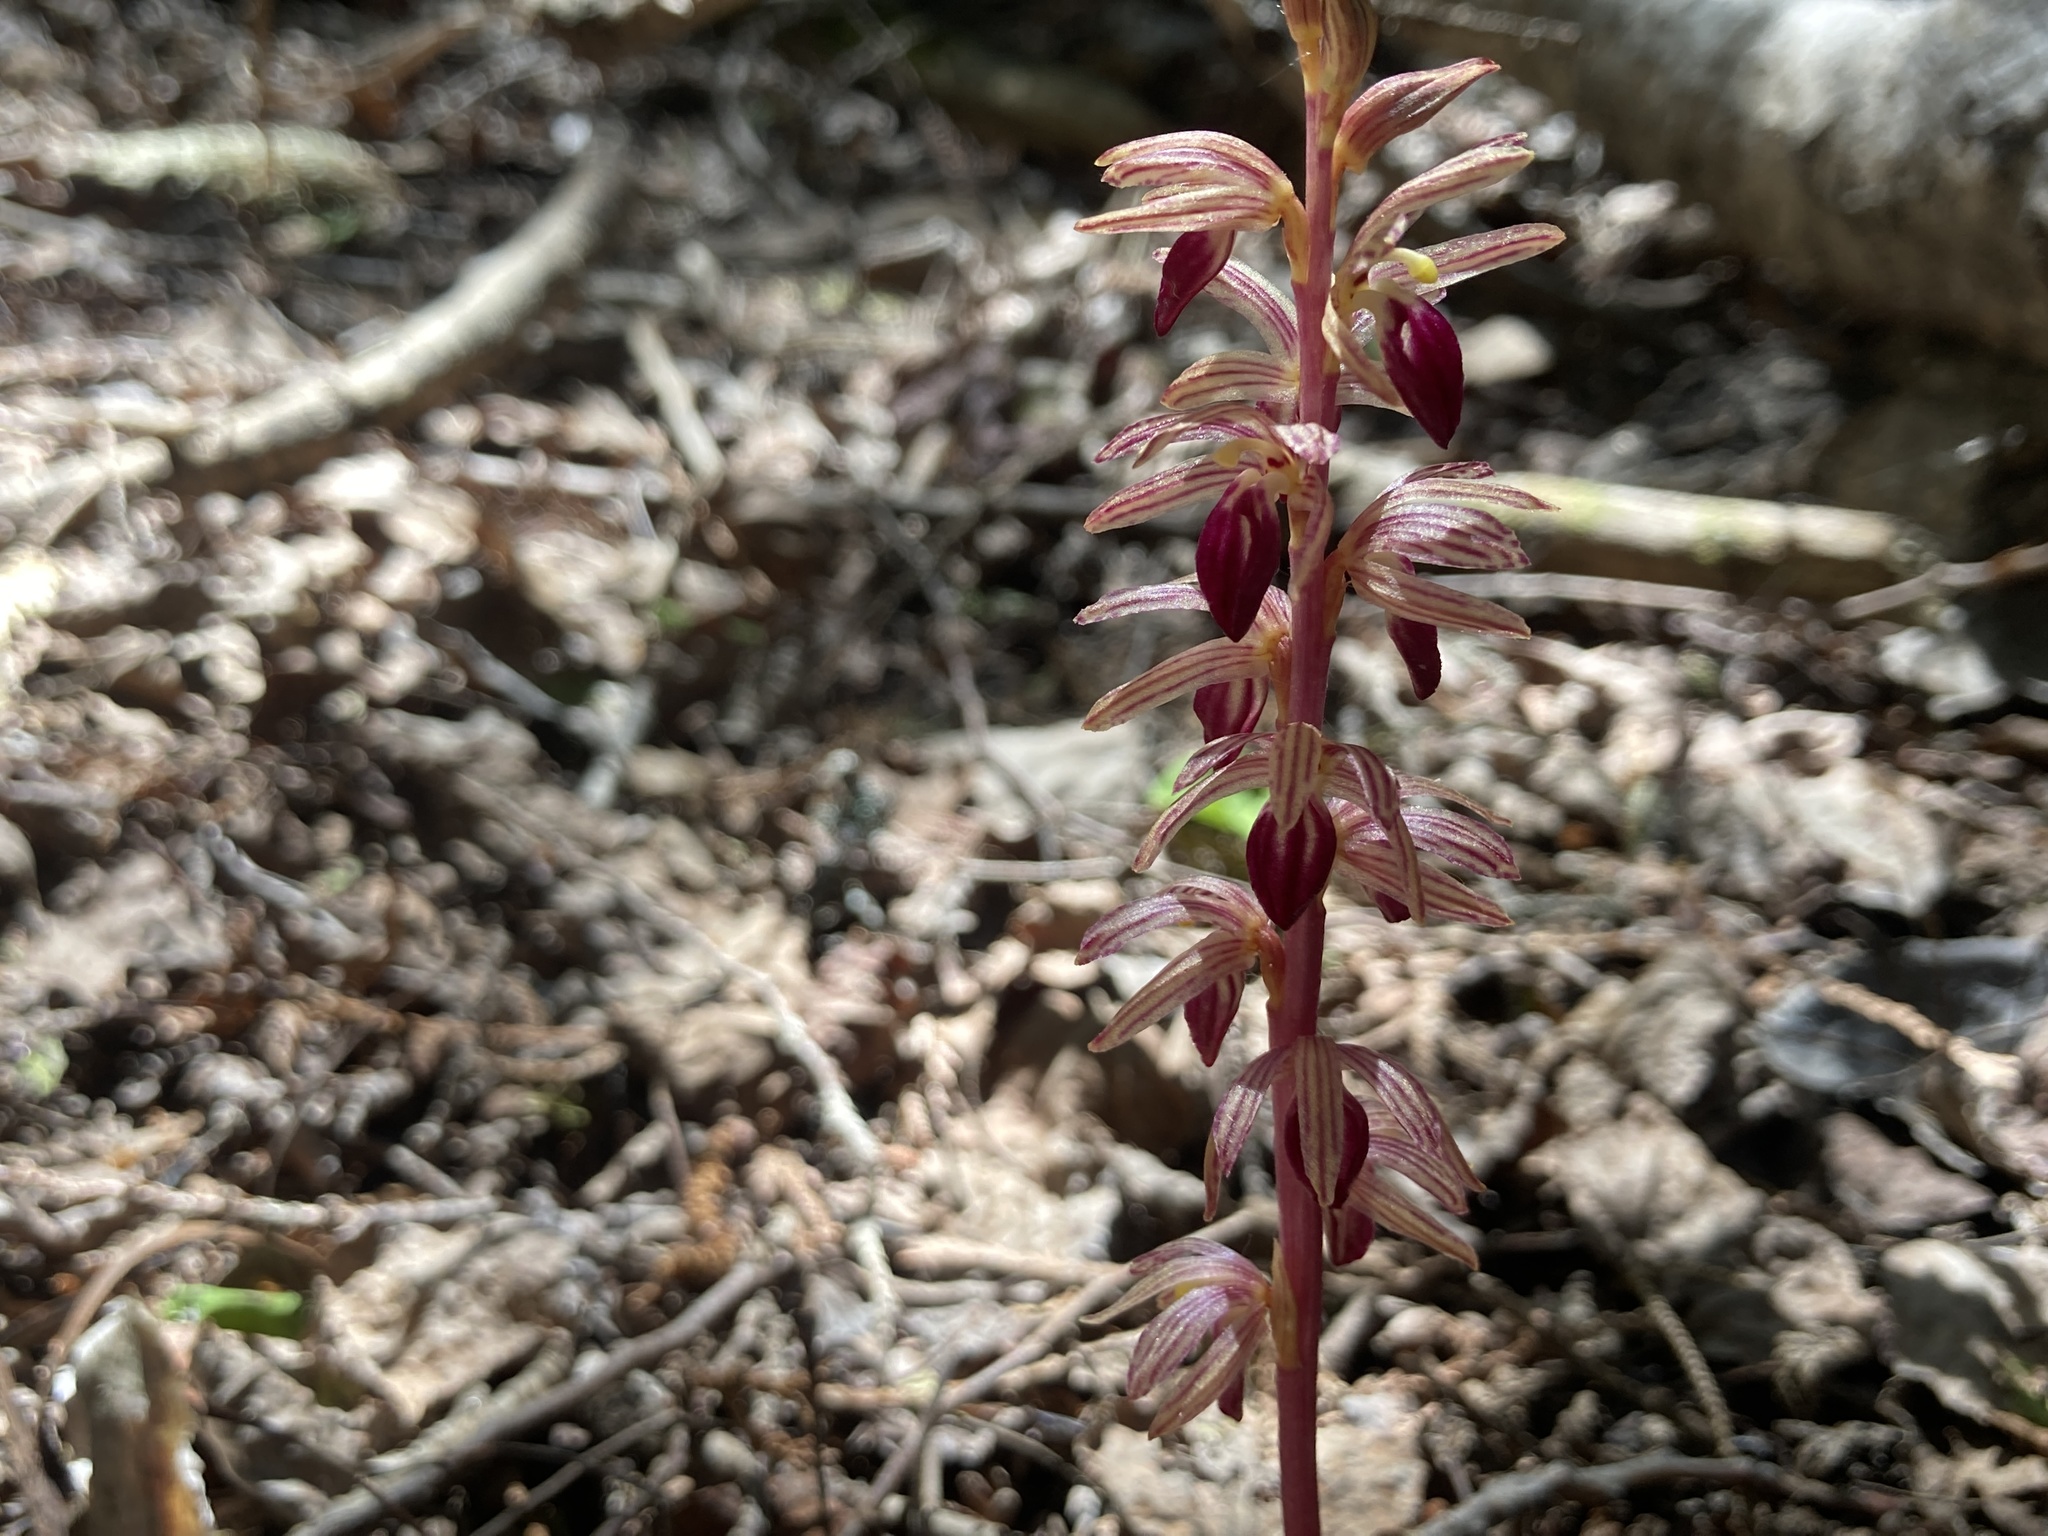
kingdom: Plantae
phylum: Tracheophyta
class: Liliopsida
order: Asparagales
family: Orchidaceae
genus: Corallorhiza
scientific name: Corallorhiza striata
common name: Hooded coralroot
